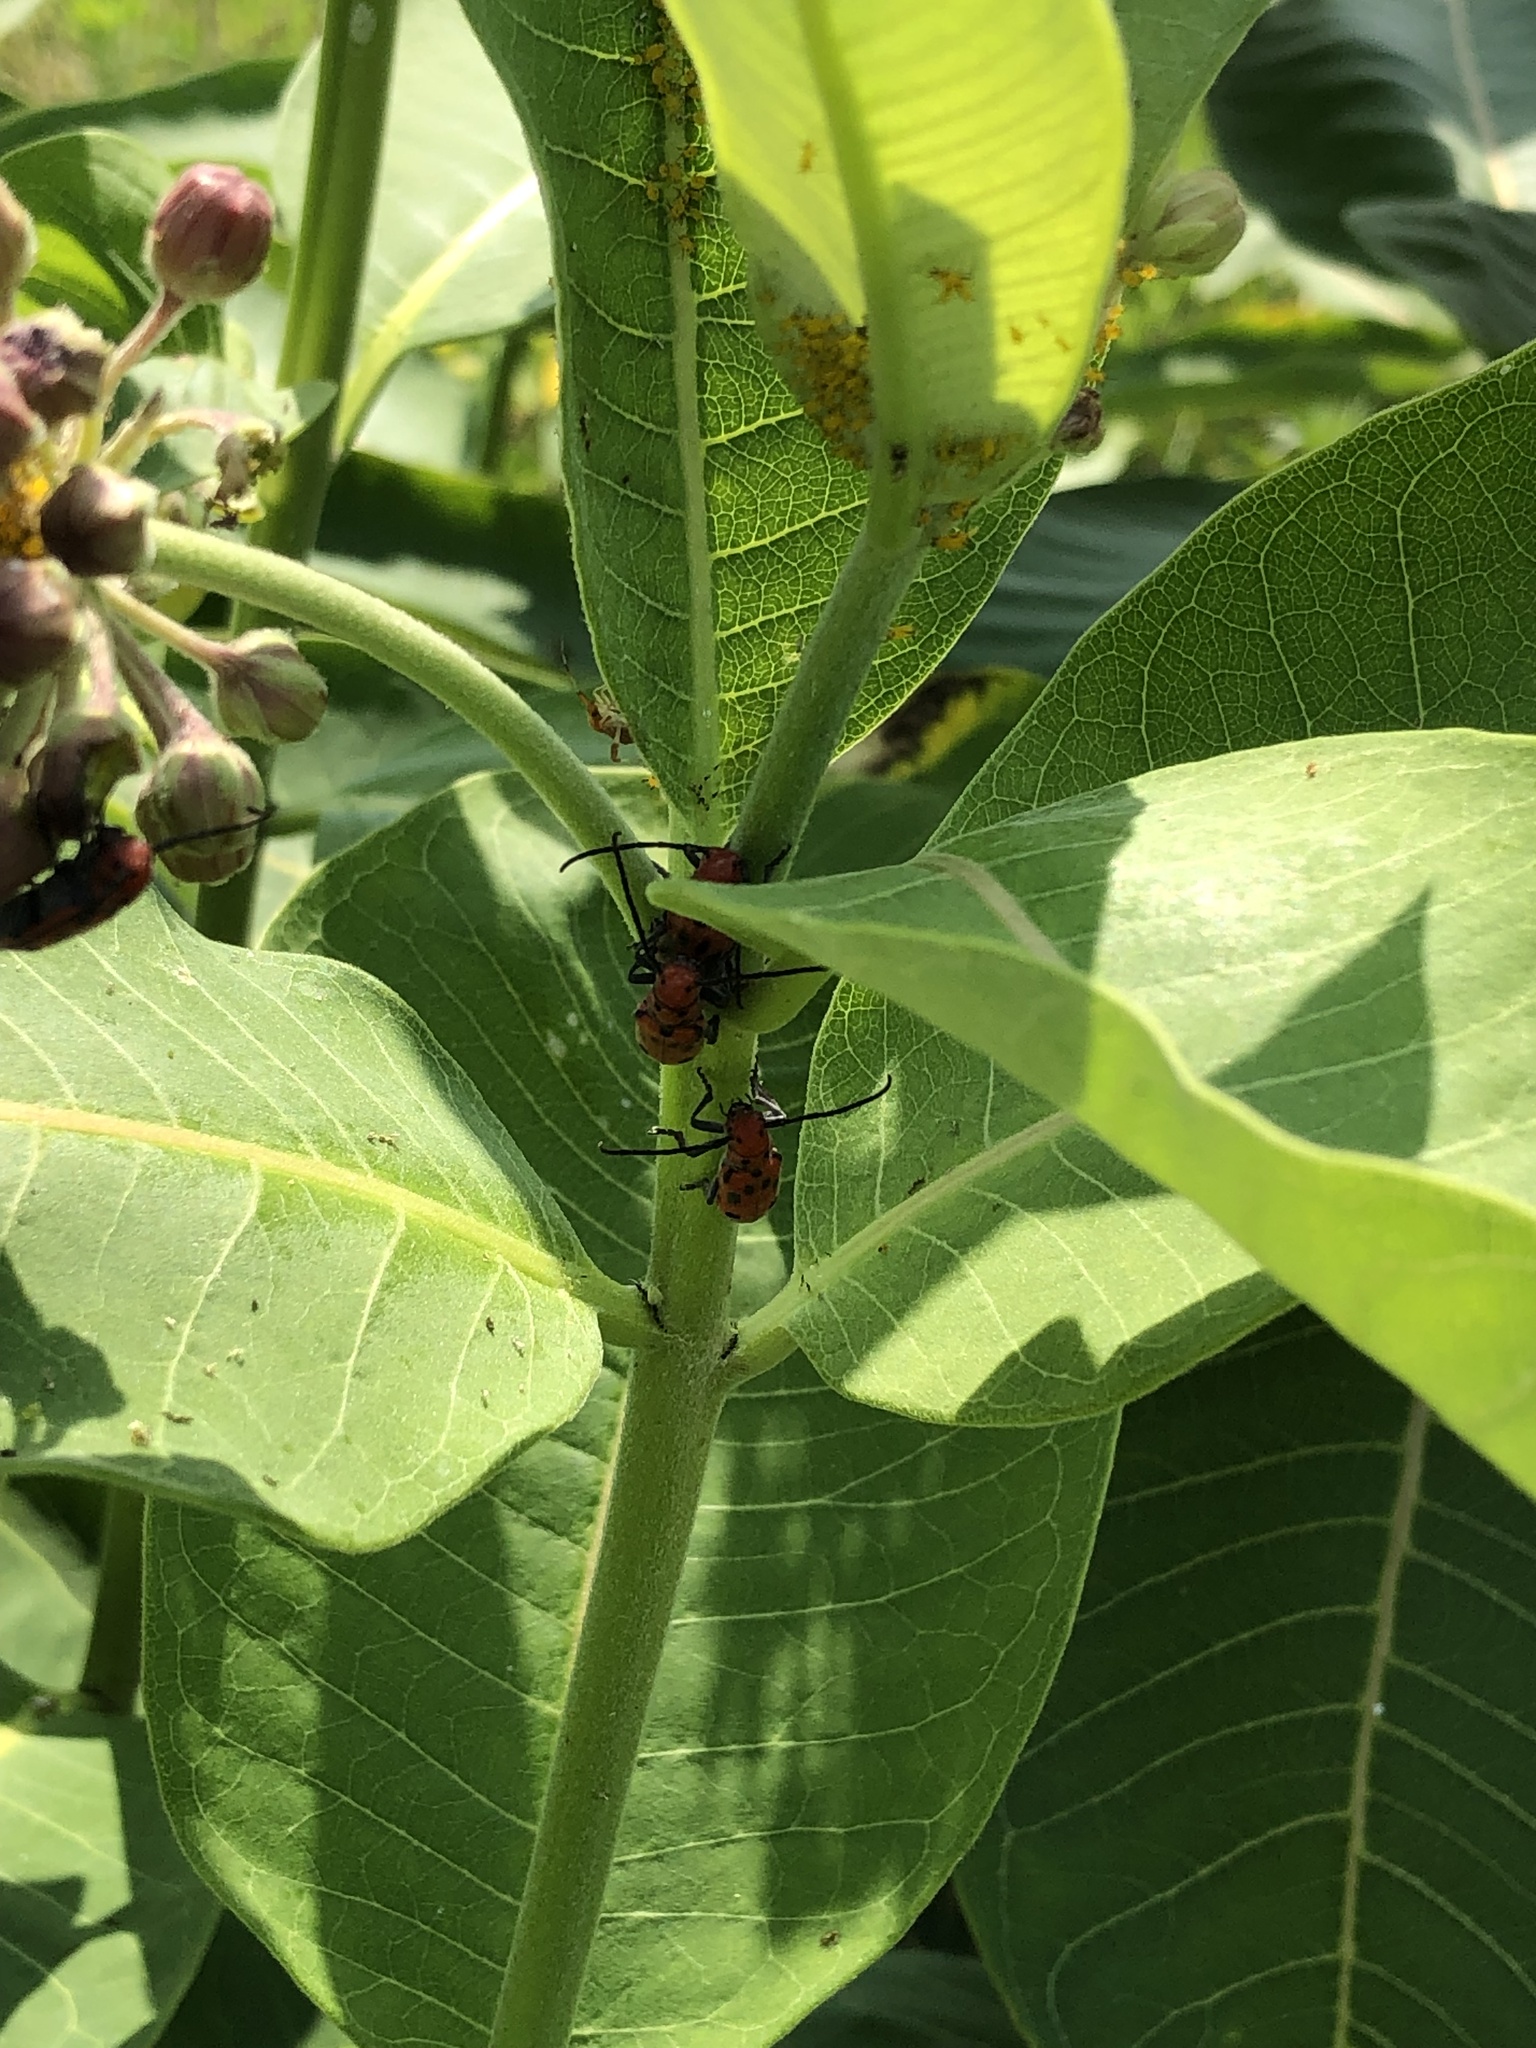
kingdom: Animalia
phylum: Arthropoda
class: Insecta
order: Coleoptera
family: Cerambycidae
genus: Tetraopes
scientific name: Tetraopes tetrophthalmus
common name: Red milkweed beetle
